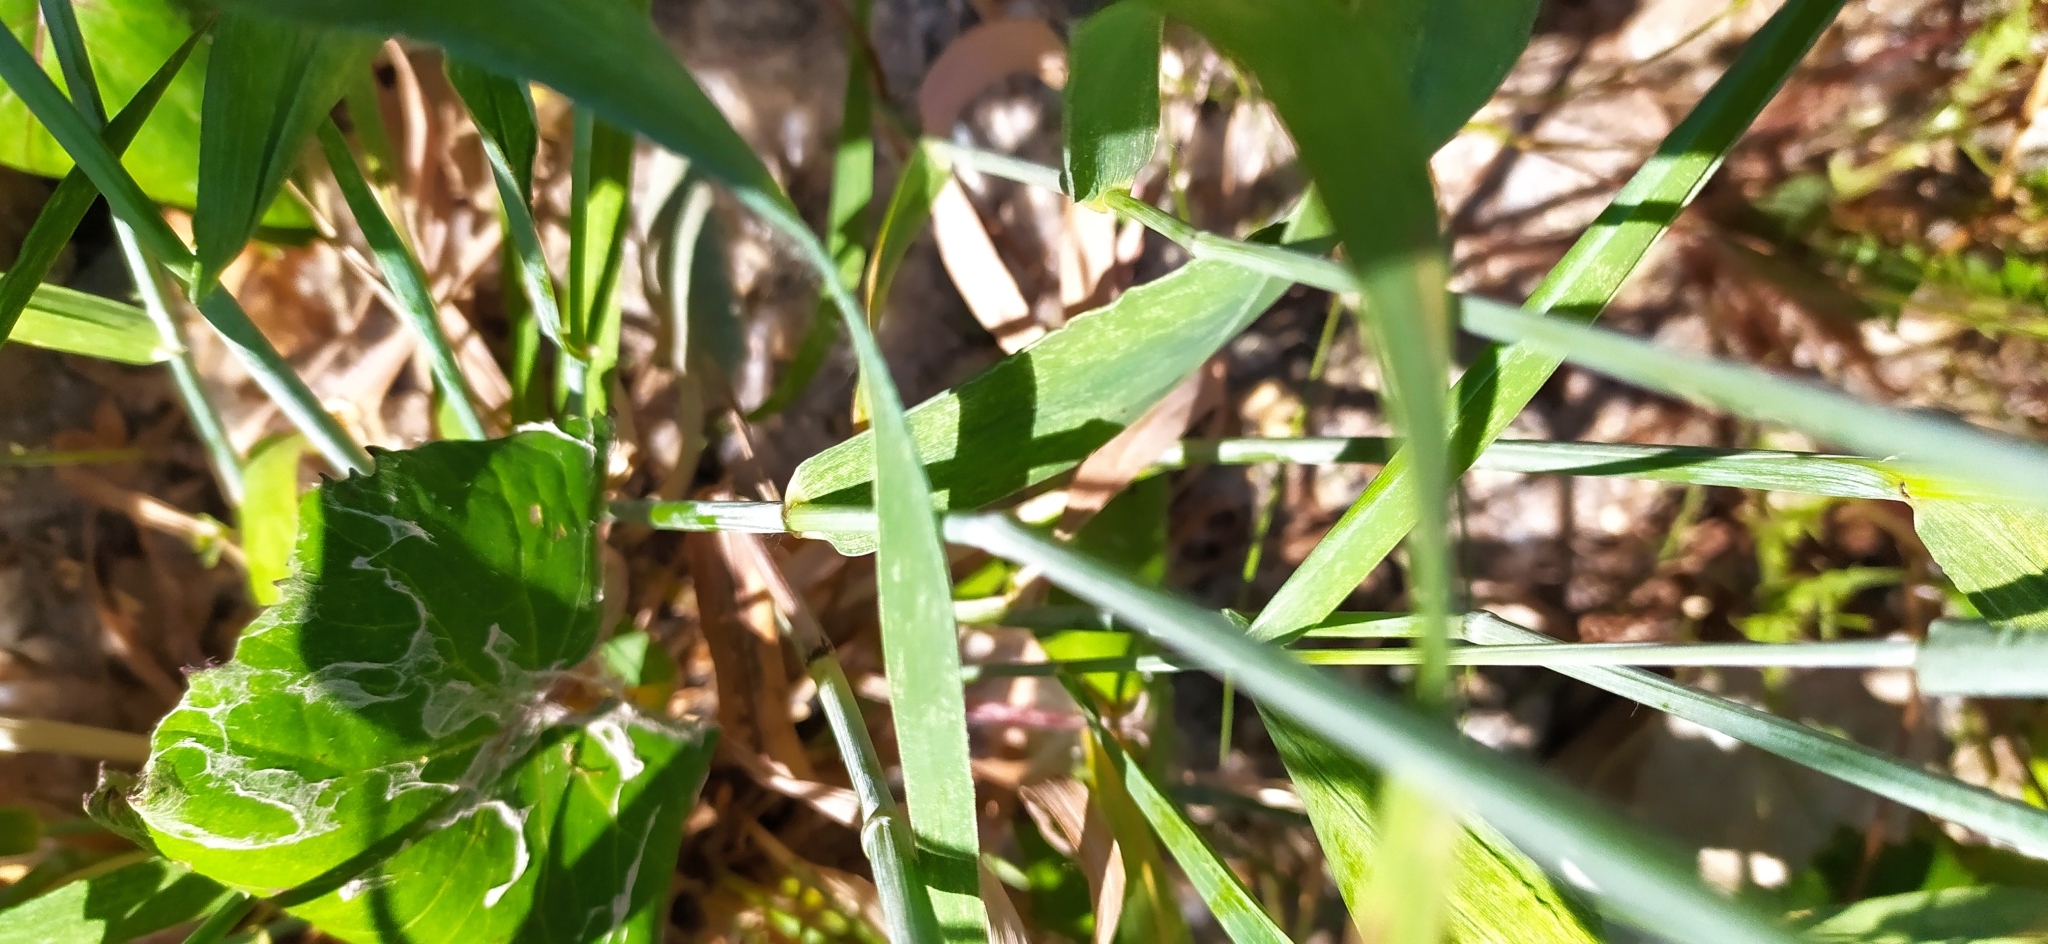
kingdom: Plantae
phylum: Tracheophyta
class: Liliopsida
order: Poales
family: Poaceae
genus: Elymus
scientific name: Elymus repens
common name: Quackgrass
